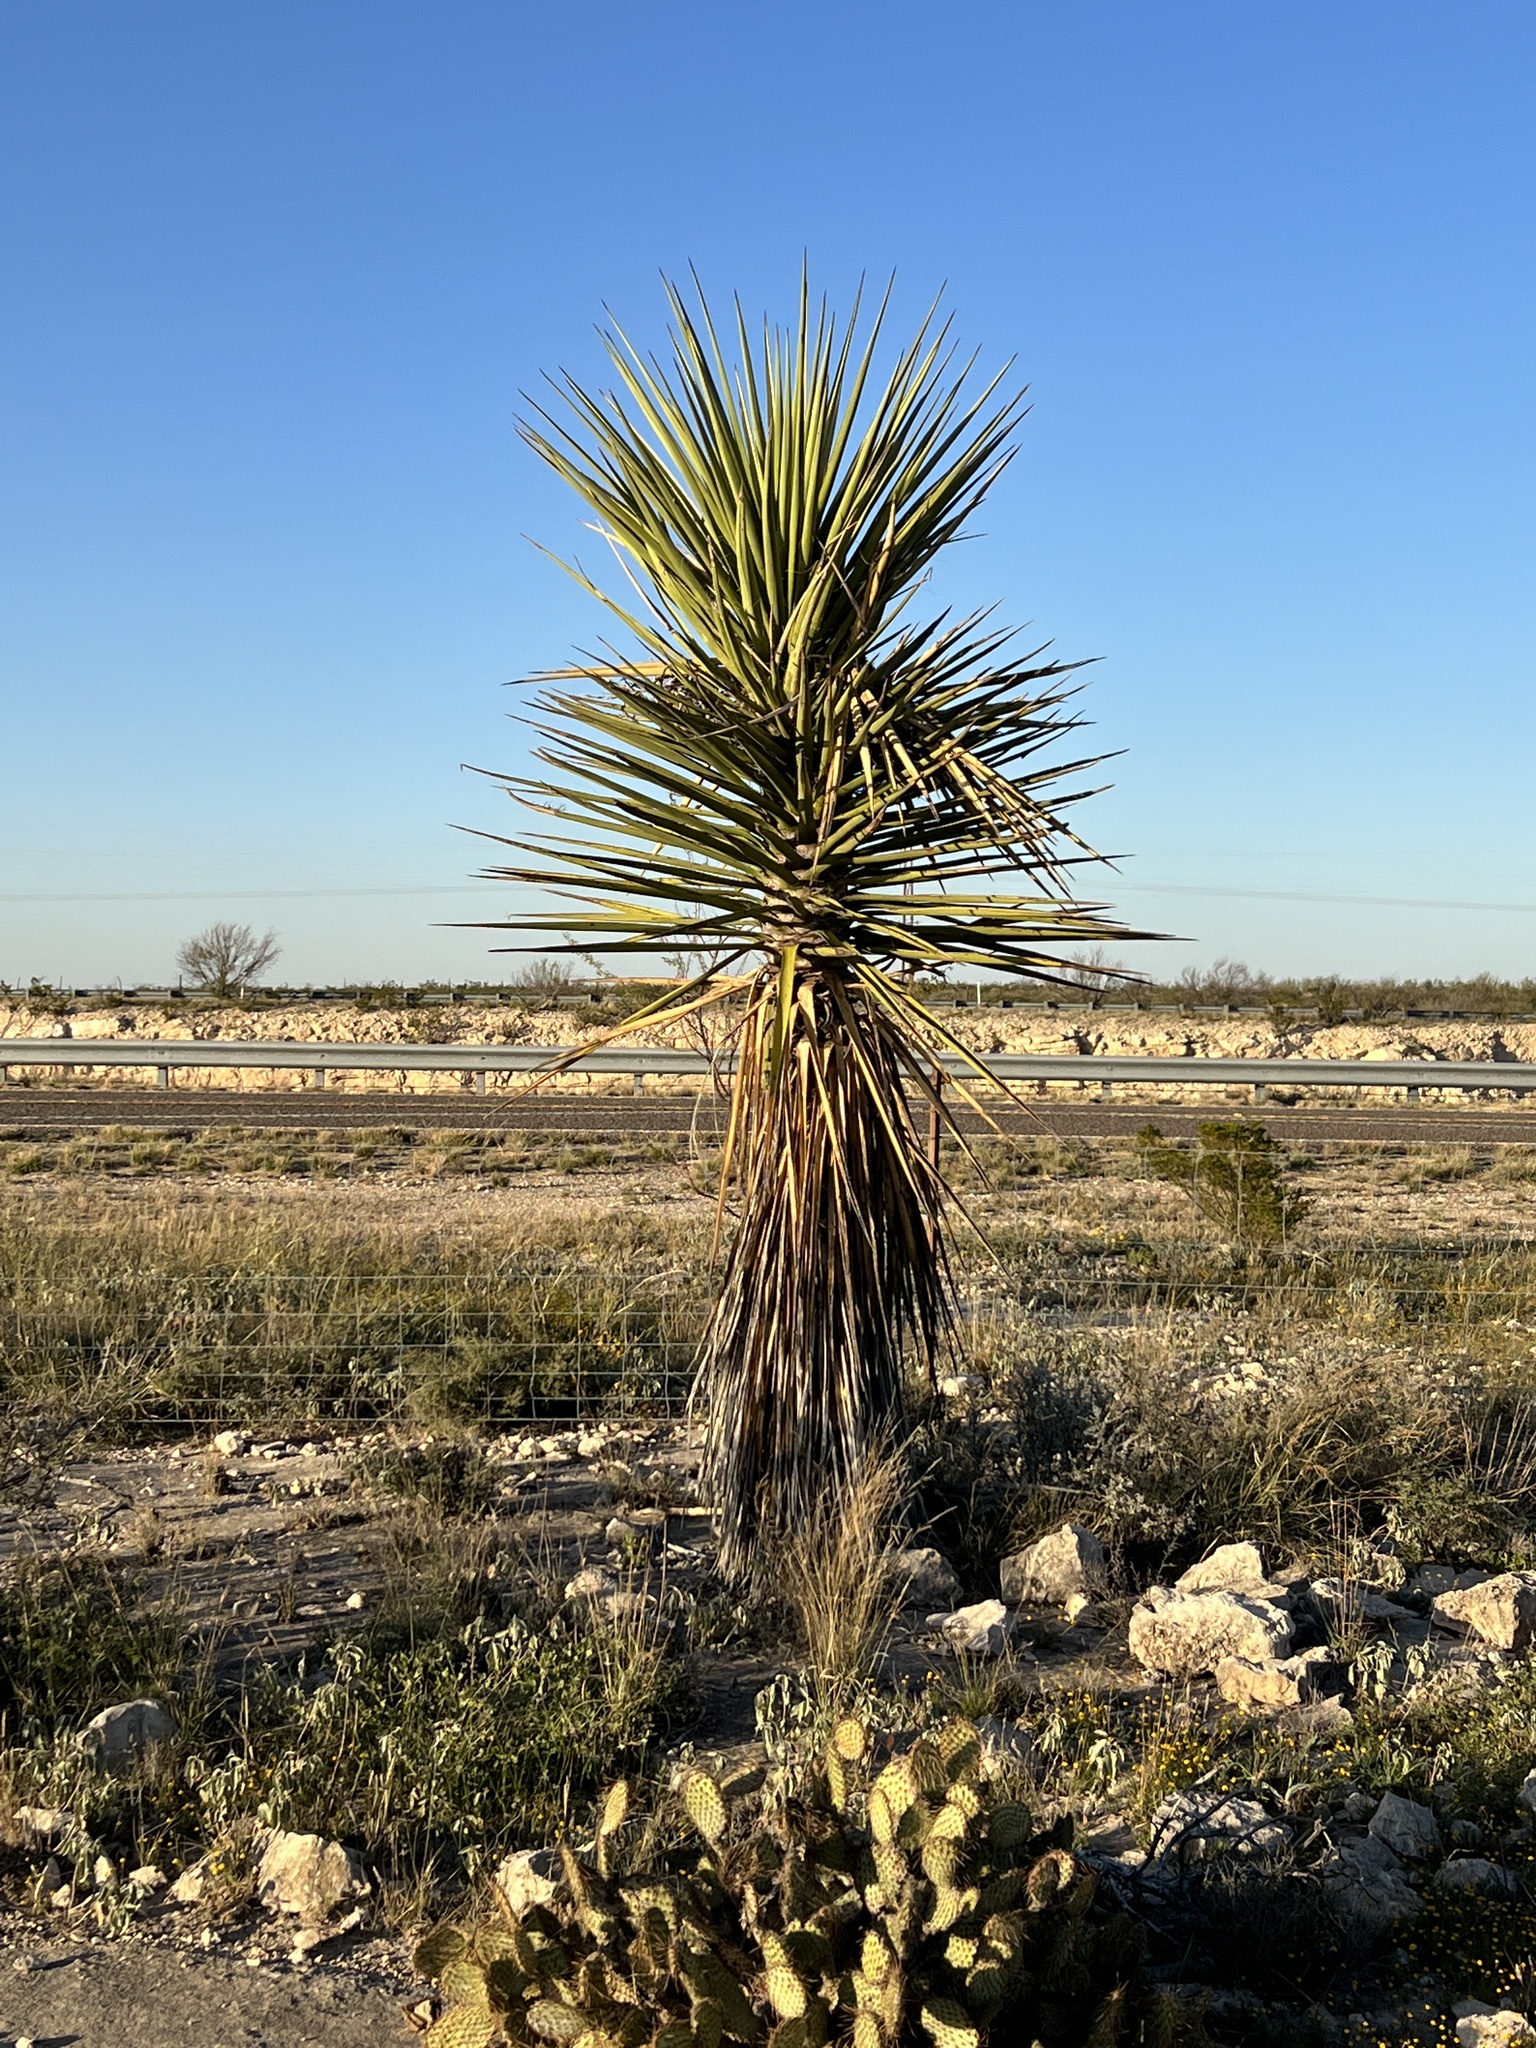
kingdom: Plantae
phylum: Tracheophyta
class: Liliopsida
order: Asparagales
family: Asparagaceae
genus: Yucca
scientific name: Yucca treculiana
